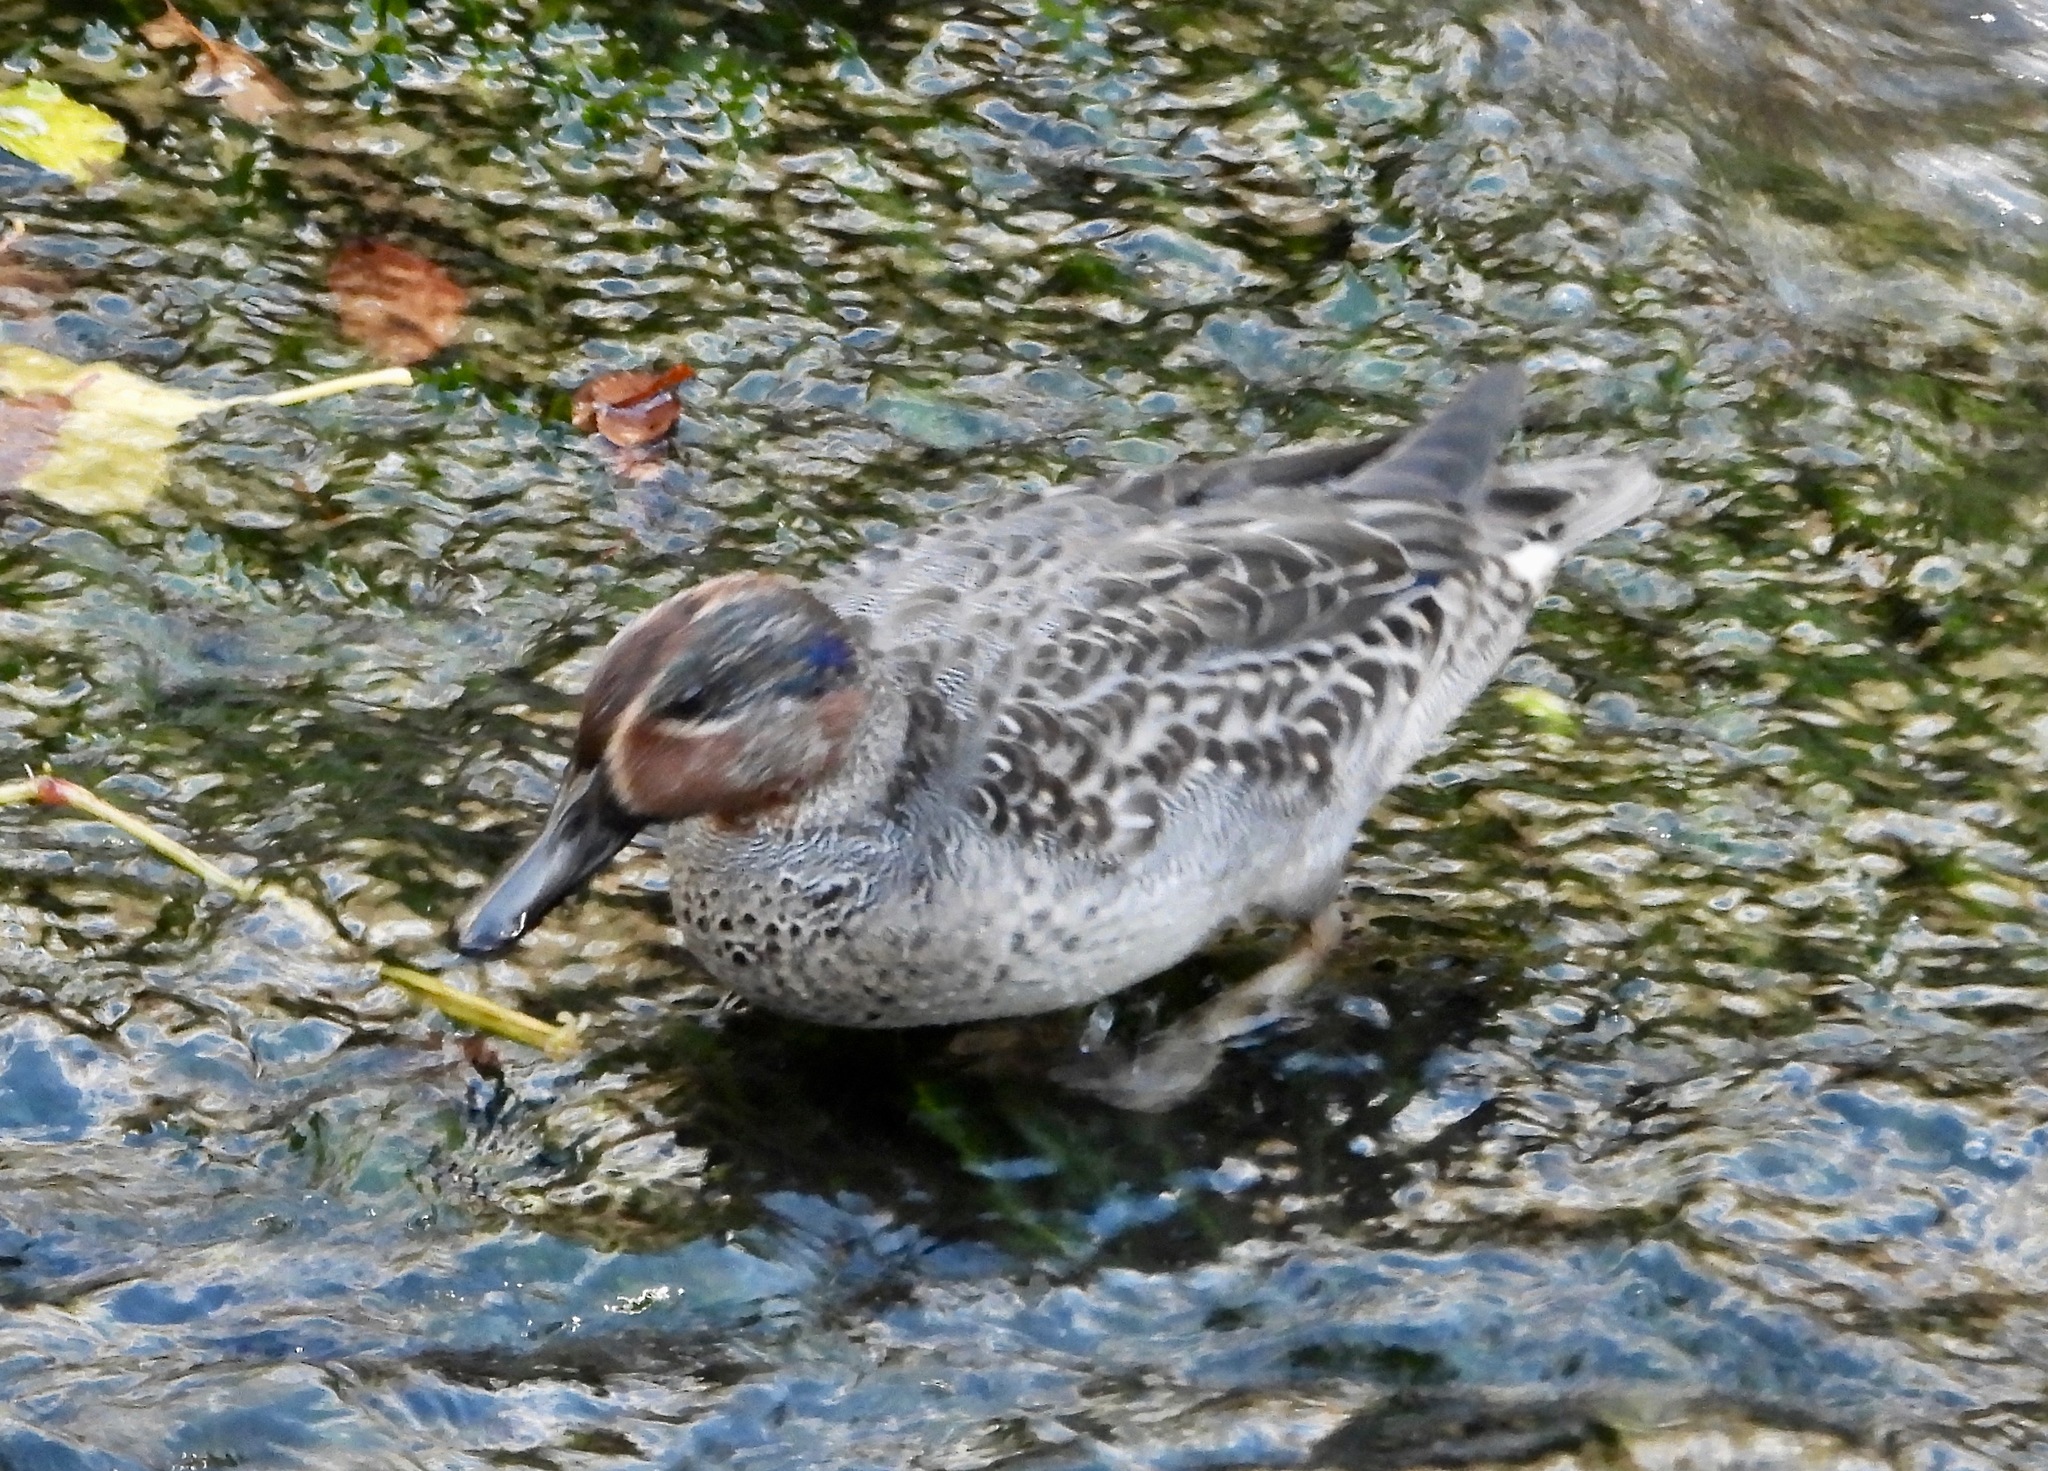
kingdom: Animalia
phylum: Chordata
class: Aves
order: Anseriformes
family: Anatidae
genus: Anas
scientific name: Anas crecca
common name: Eurasian teal
